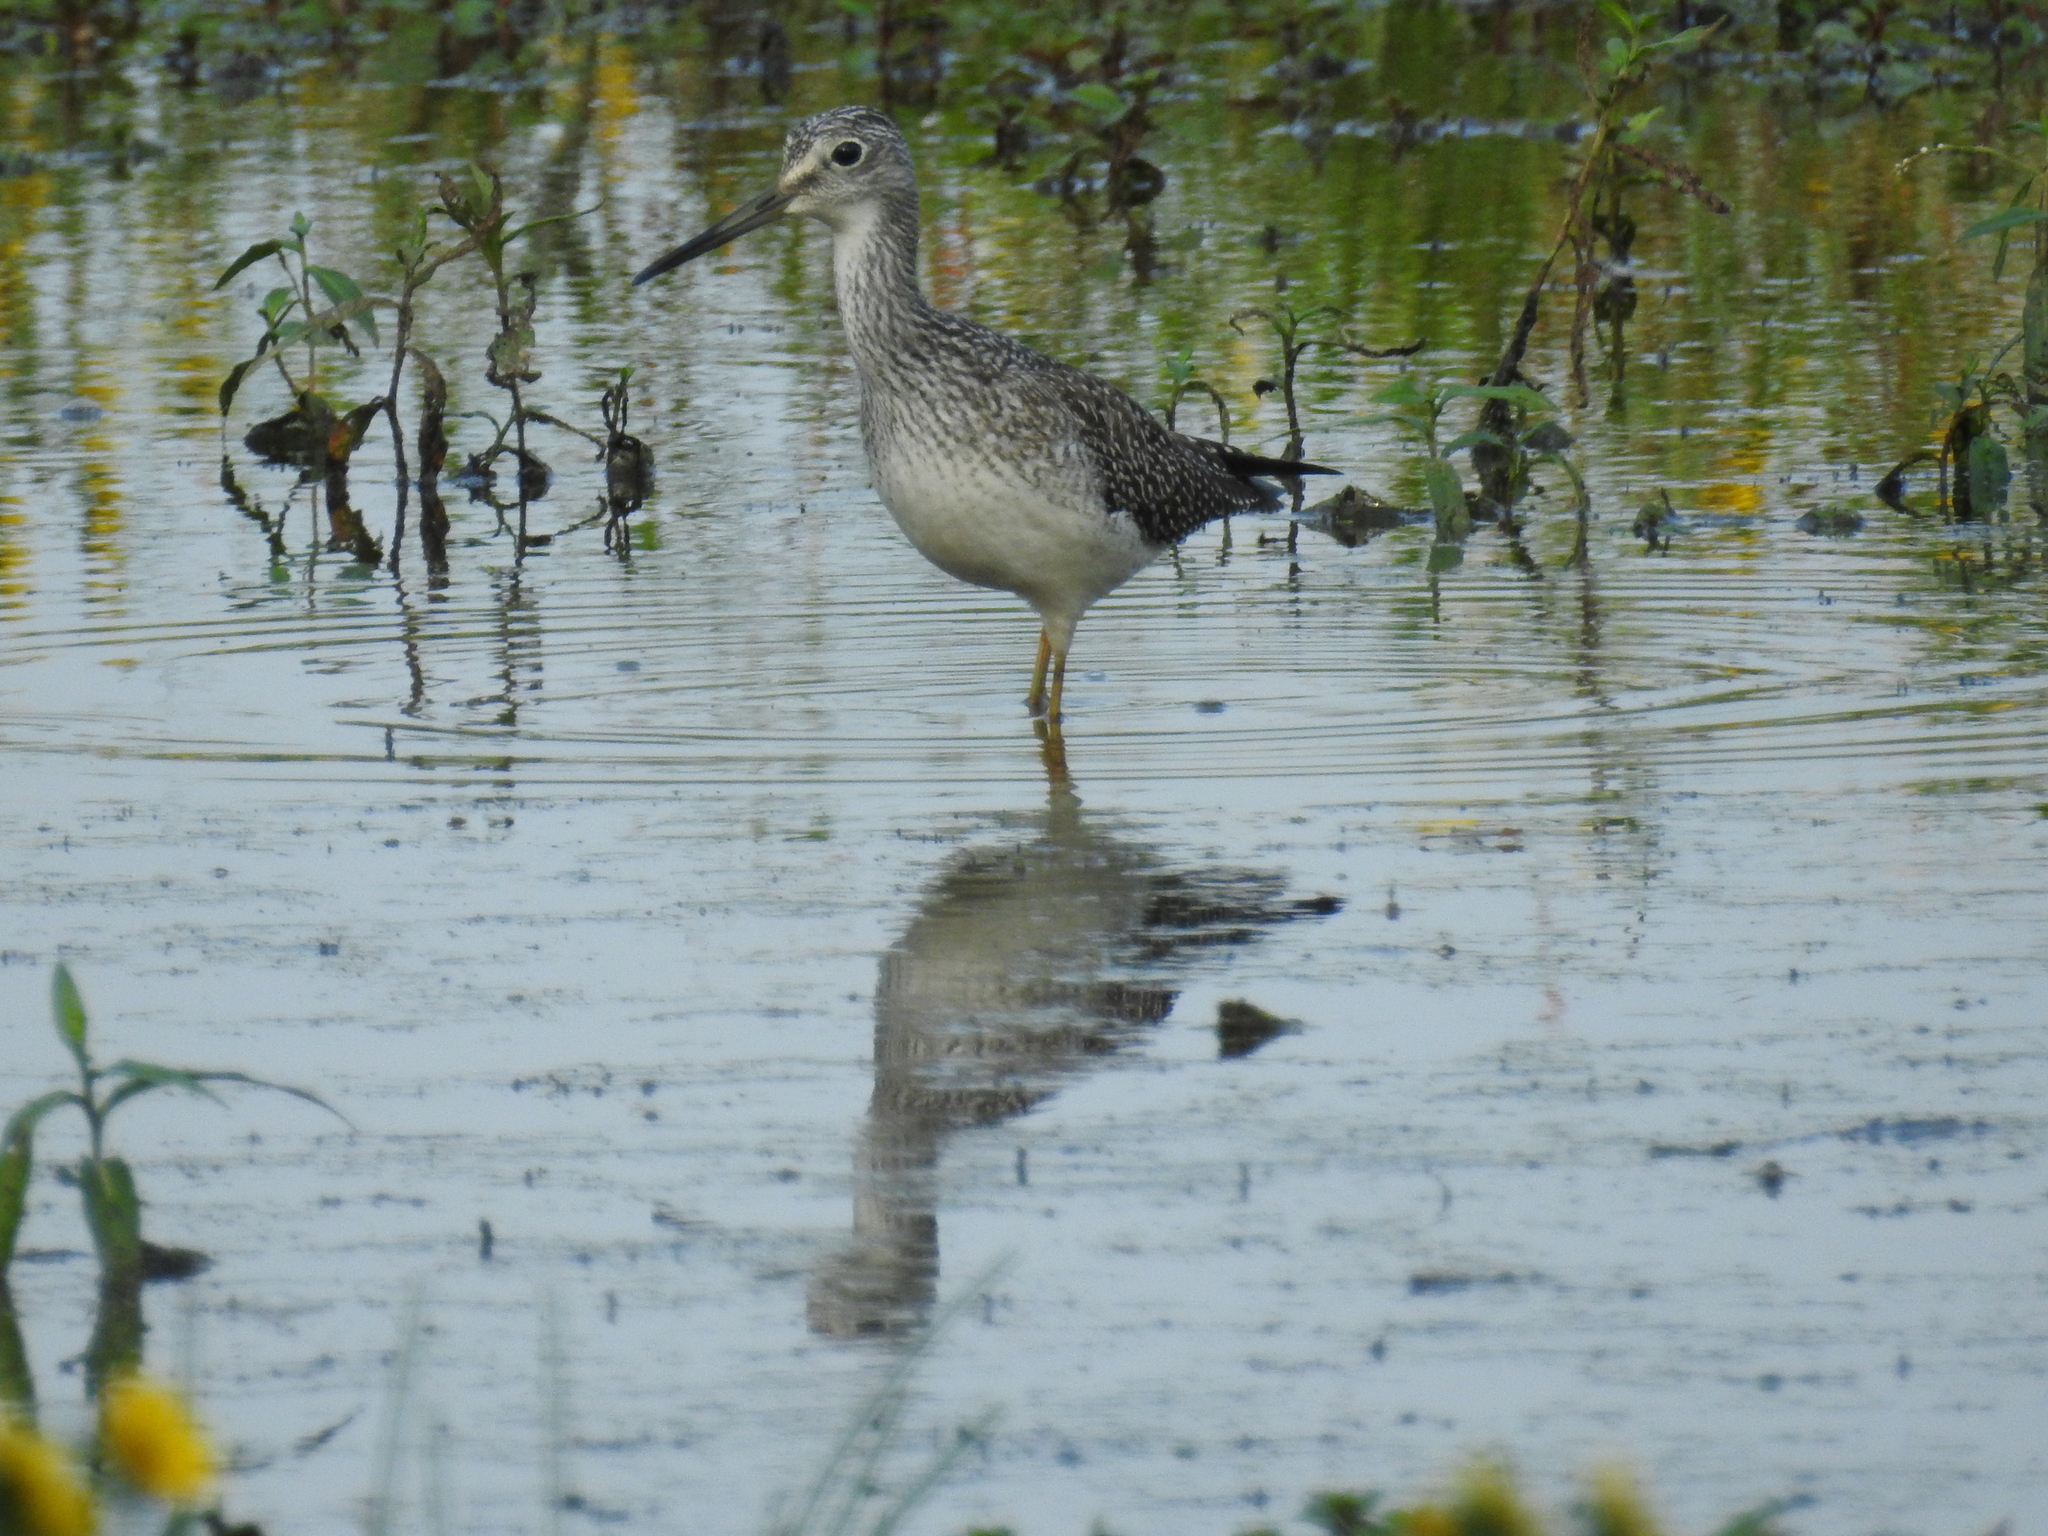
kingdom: Animalia
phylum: Chordata
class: Aves
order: Charadriiformes
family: Scolopacidae
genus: Tringa
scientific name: Tringa melanoleuca
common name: Greater yellowlegs
